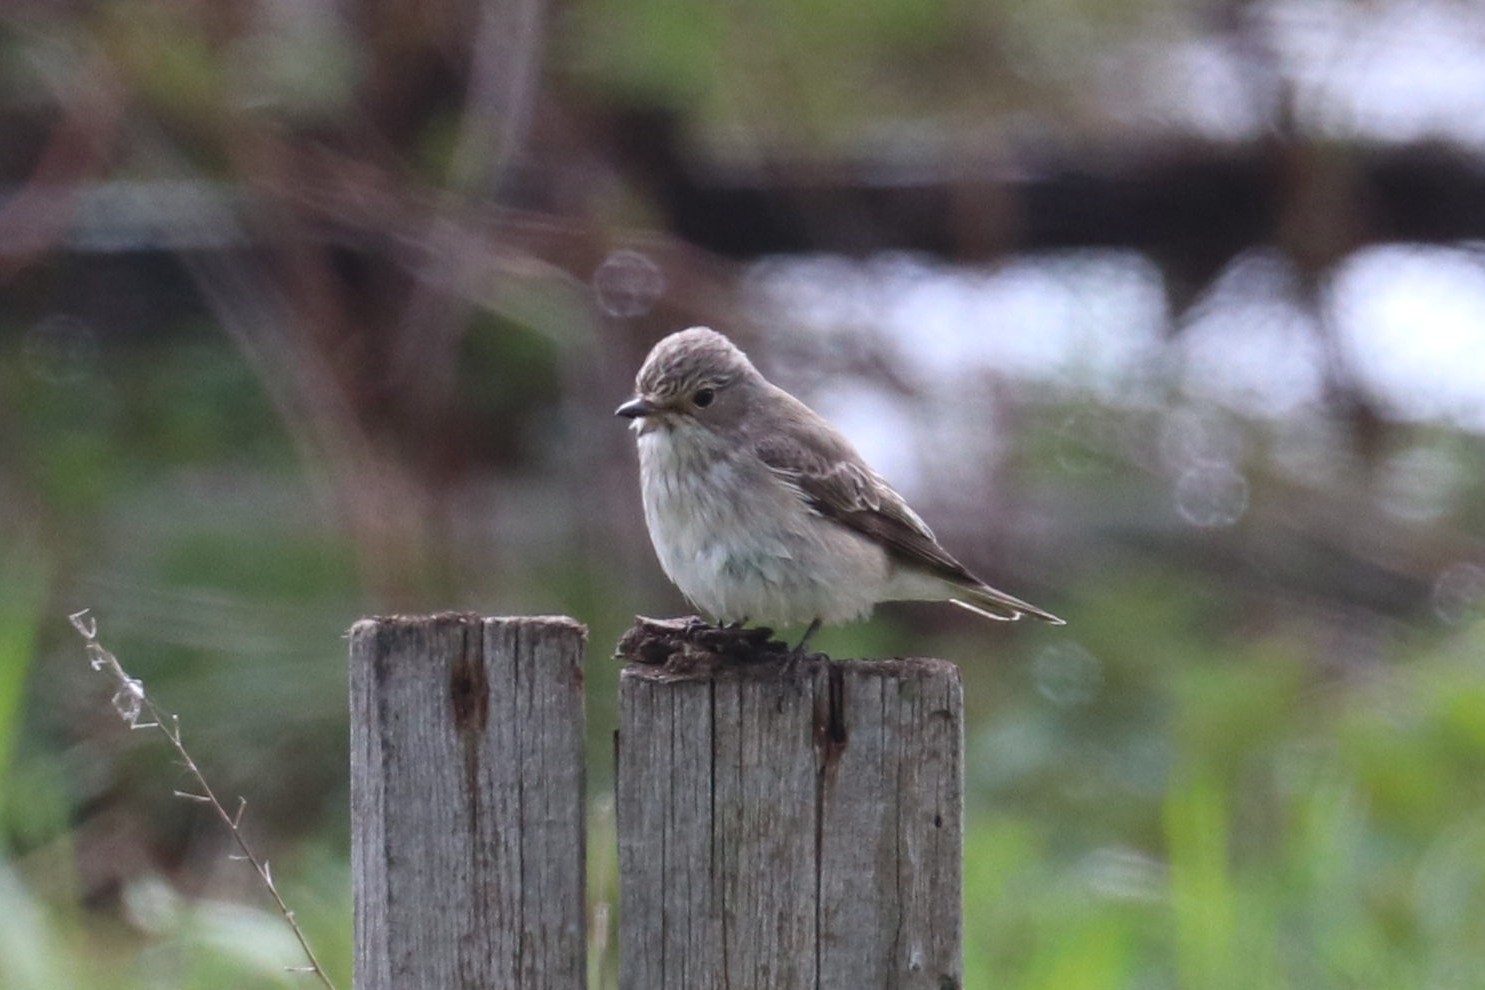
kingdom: Animalia
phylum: Chordata
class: Aves
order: Passeriformes
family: Muscicapidae
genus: Muscicapa
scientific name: Muscicapa striata
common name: Spotted flycatcher
